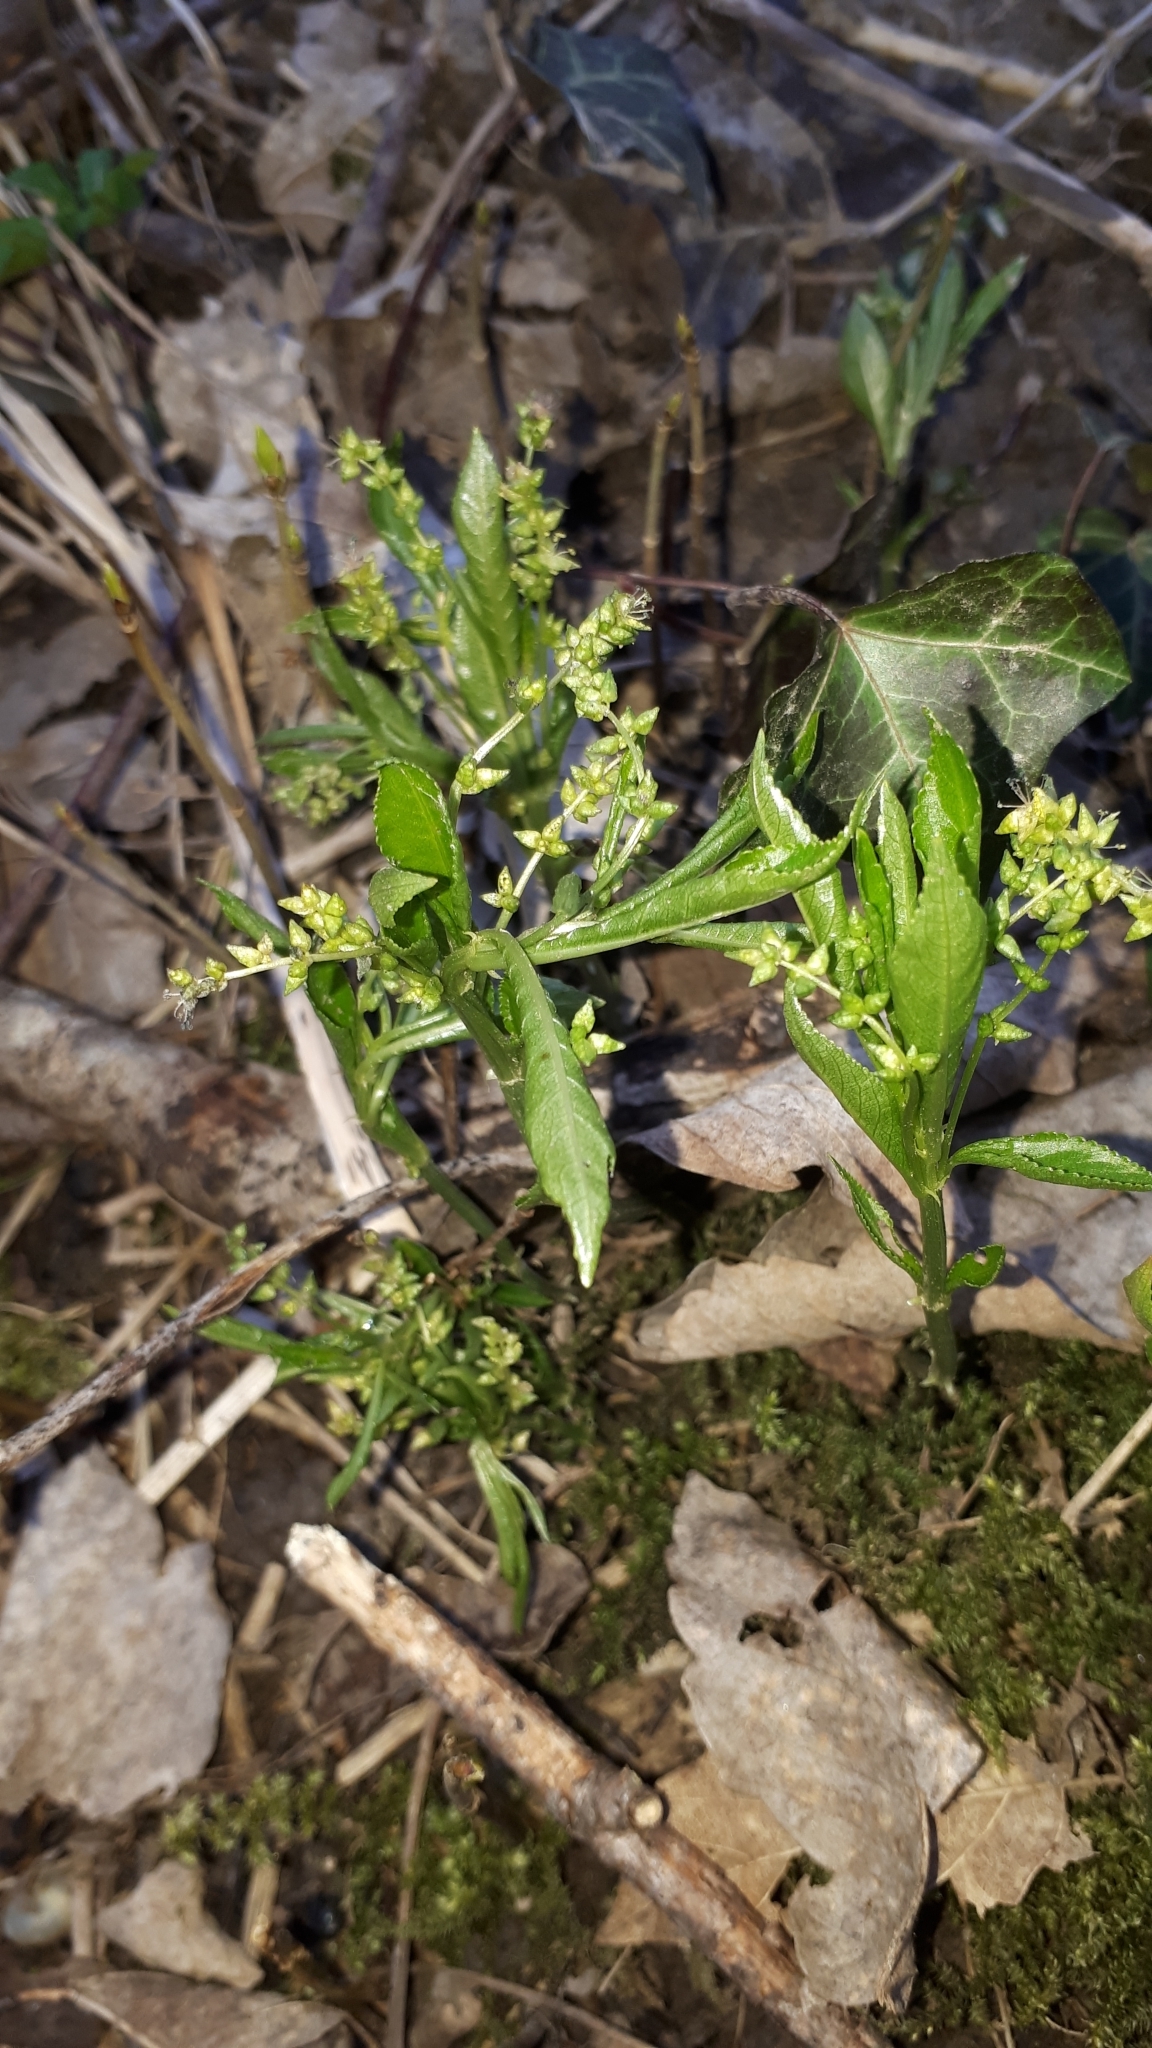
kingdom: Plantae
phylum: Tracheophyta
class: Magnoliopsida
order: Malpighiales
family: Euphorbiaceae
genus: Mercurialis
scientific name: Mercurialis perennis
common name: Dog mercury
